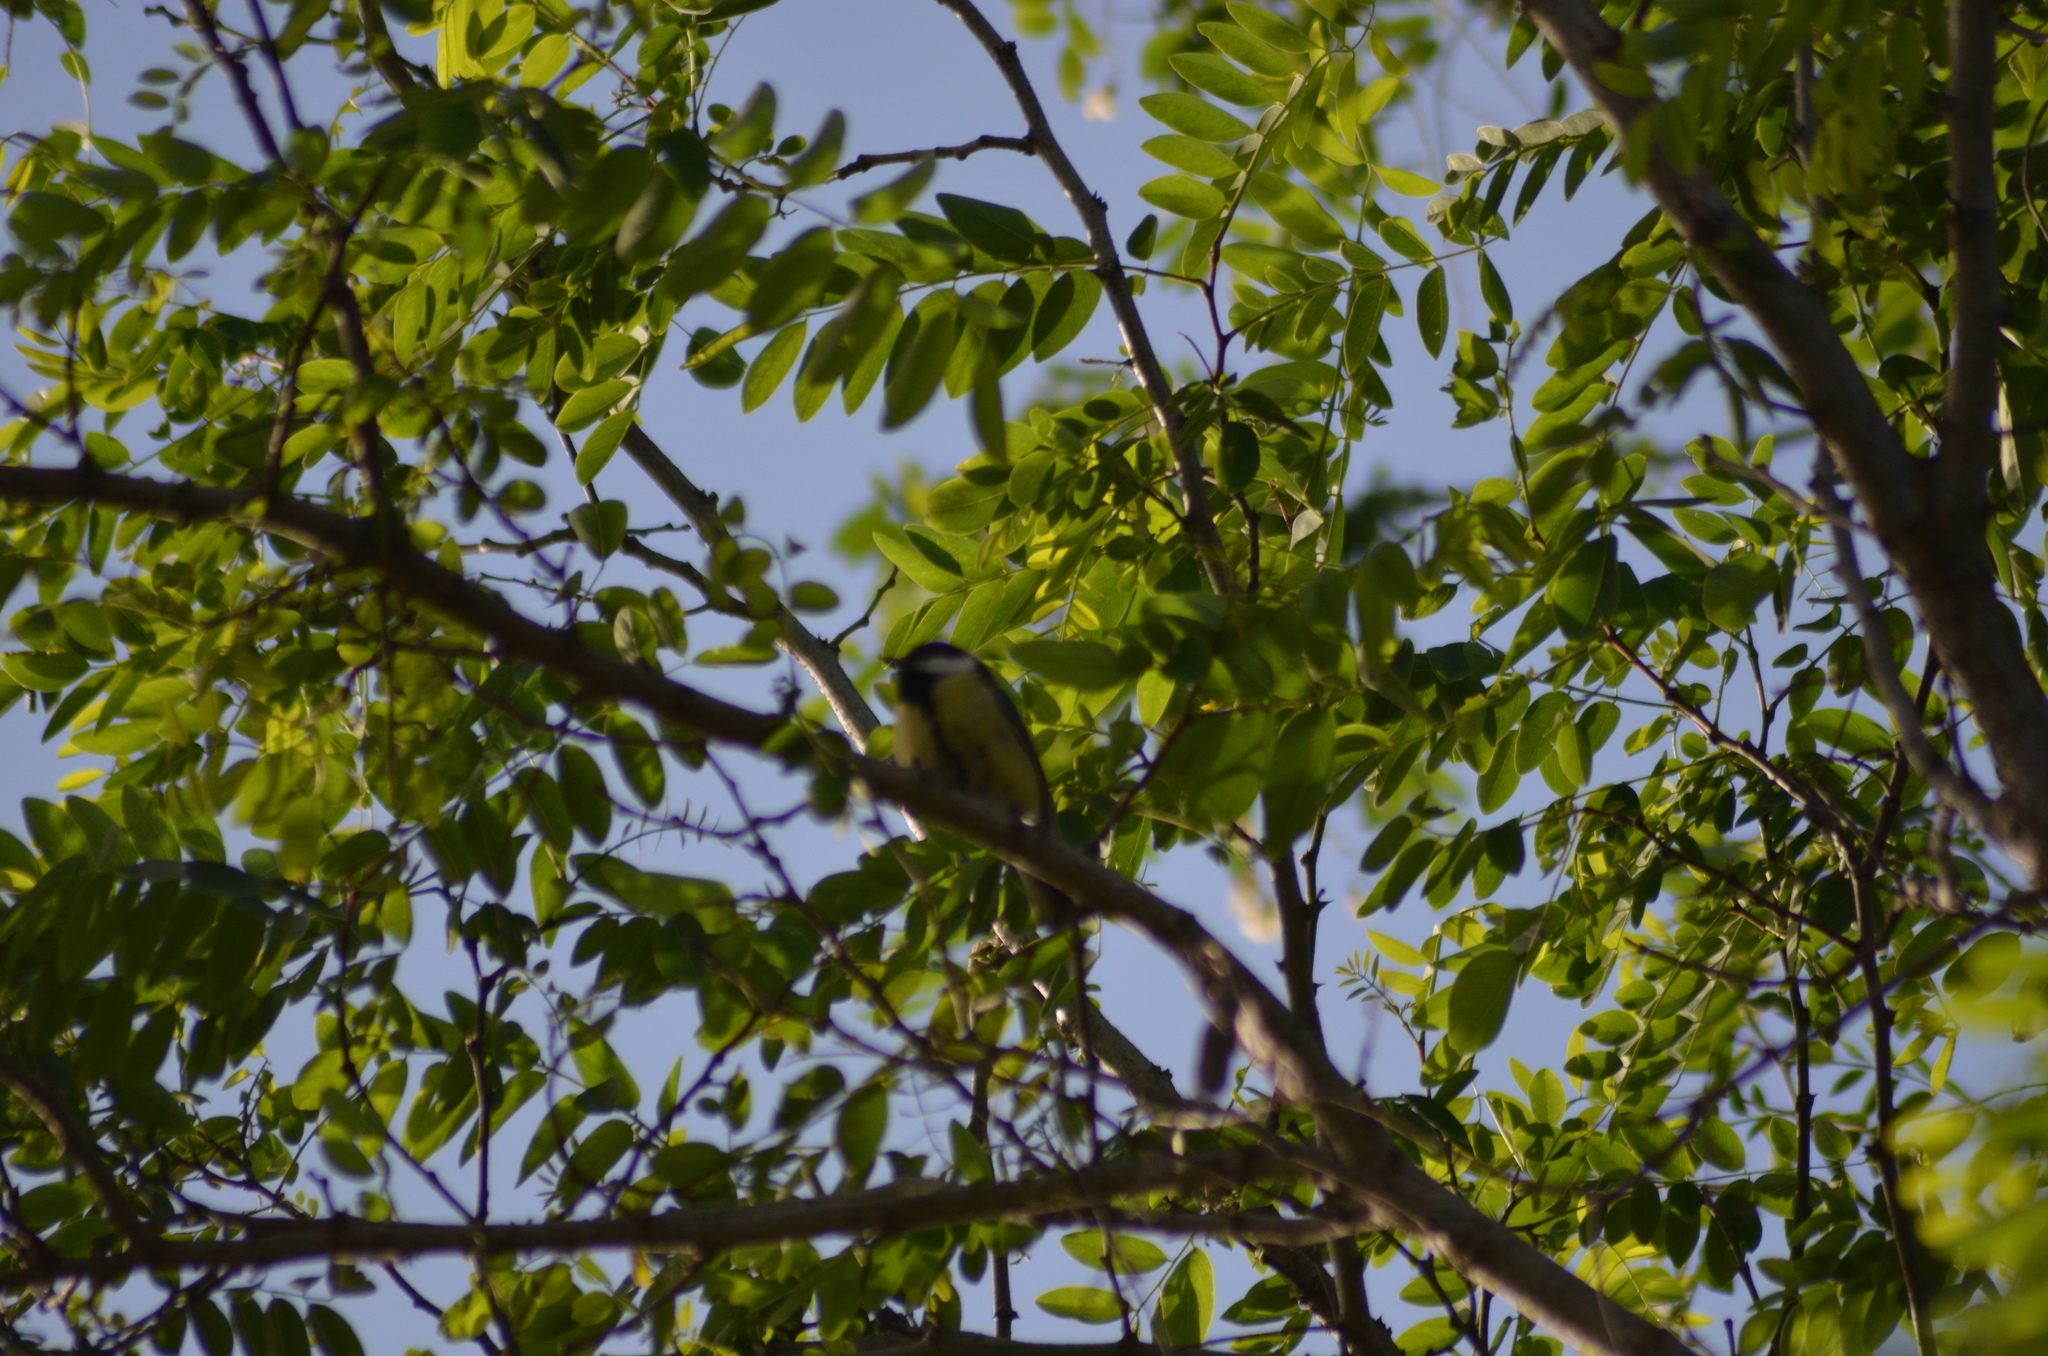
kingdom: Animalia
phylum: Chordata
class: Aves
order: Passeriformes
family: Paridae
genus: Parus
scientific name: Parus major
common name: Great tit
